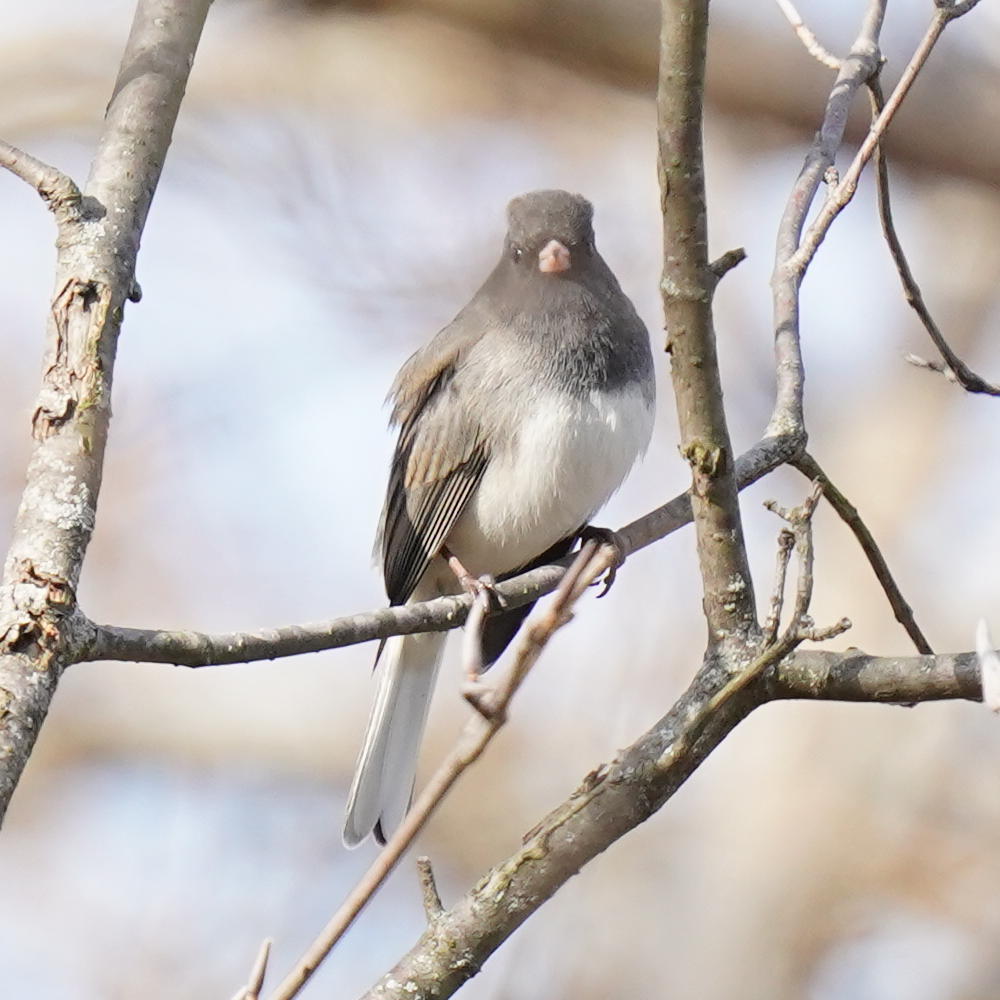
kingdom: Animalia
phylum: Chordata
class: Aves
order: Passeriformes
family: Passerellidae
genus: Junco
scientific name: Junco hyemalis
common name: Dark-eyed junco
